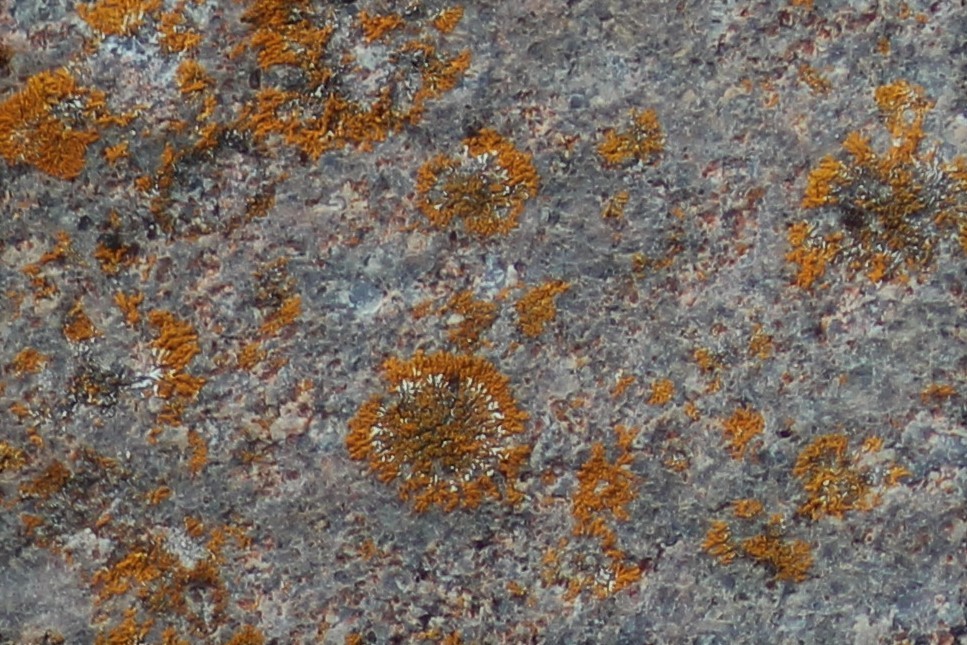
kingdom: Fungi
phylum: Ascomycota
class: Lecanoromycetes
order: Teloschistales
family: Teloschistaceae
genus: Xanthoria
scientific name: Xanthoria elegans
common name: Elegant sunburst lichen
